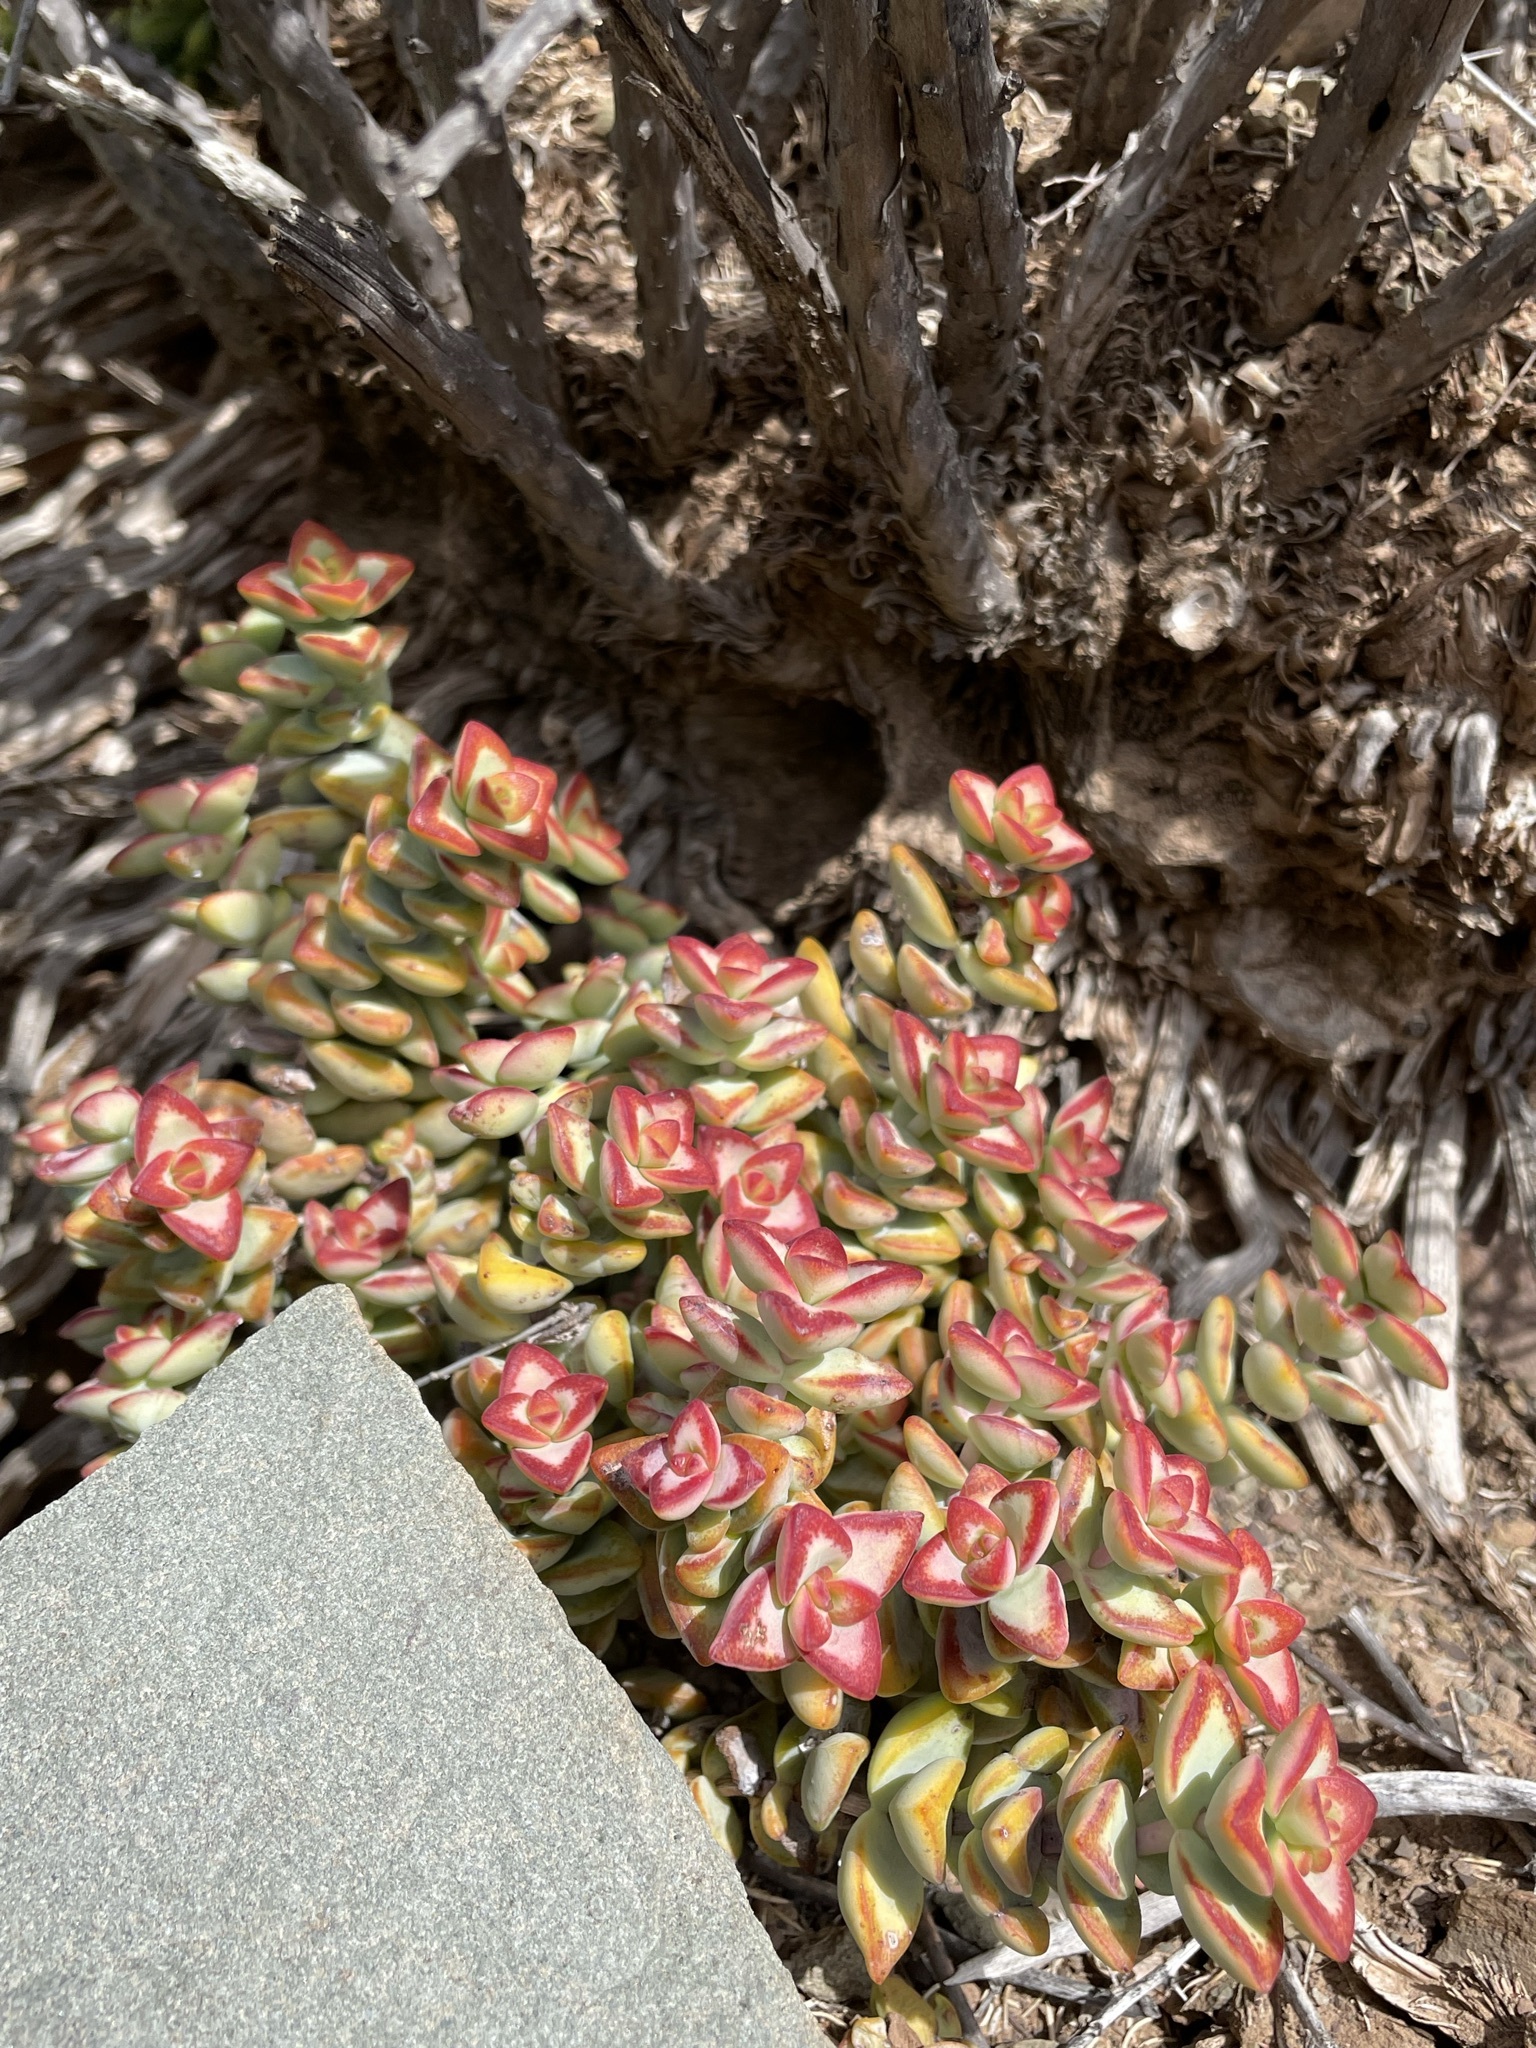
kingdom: Plantae
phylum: Tracheophyta
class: Magnoliopsida
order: Saxifragales
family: Crassulaceae
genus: Crassula
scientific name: Crassula rupestris
